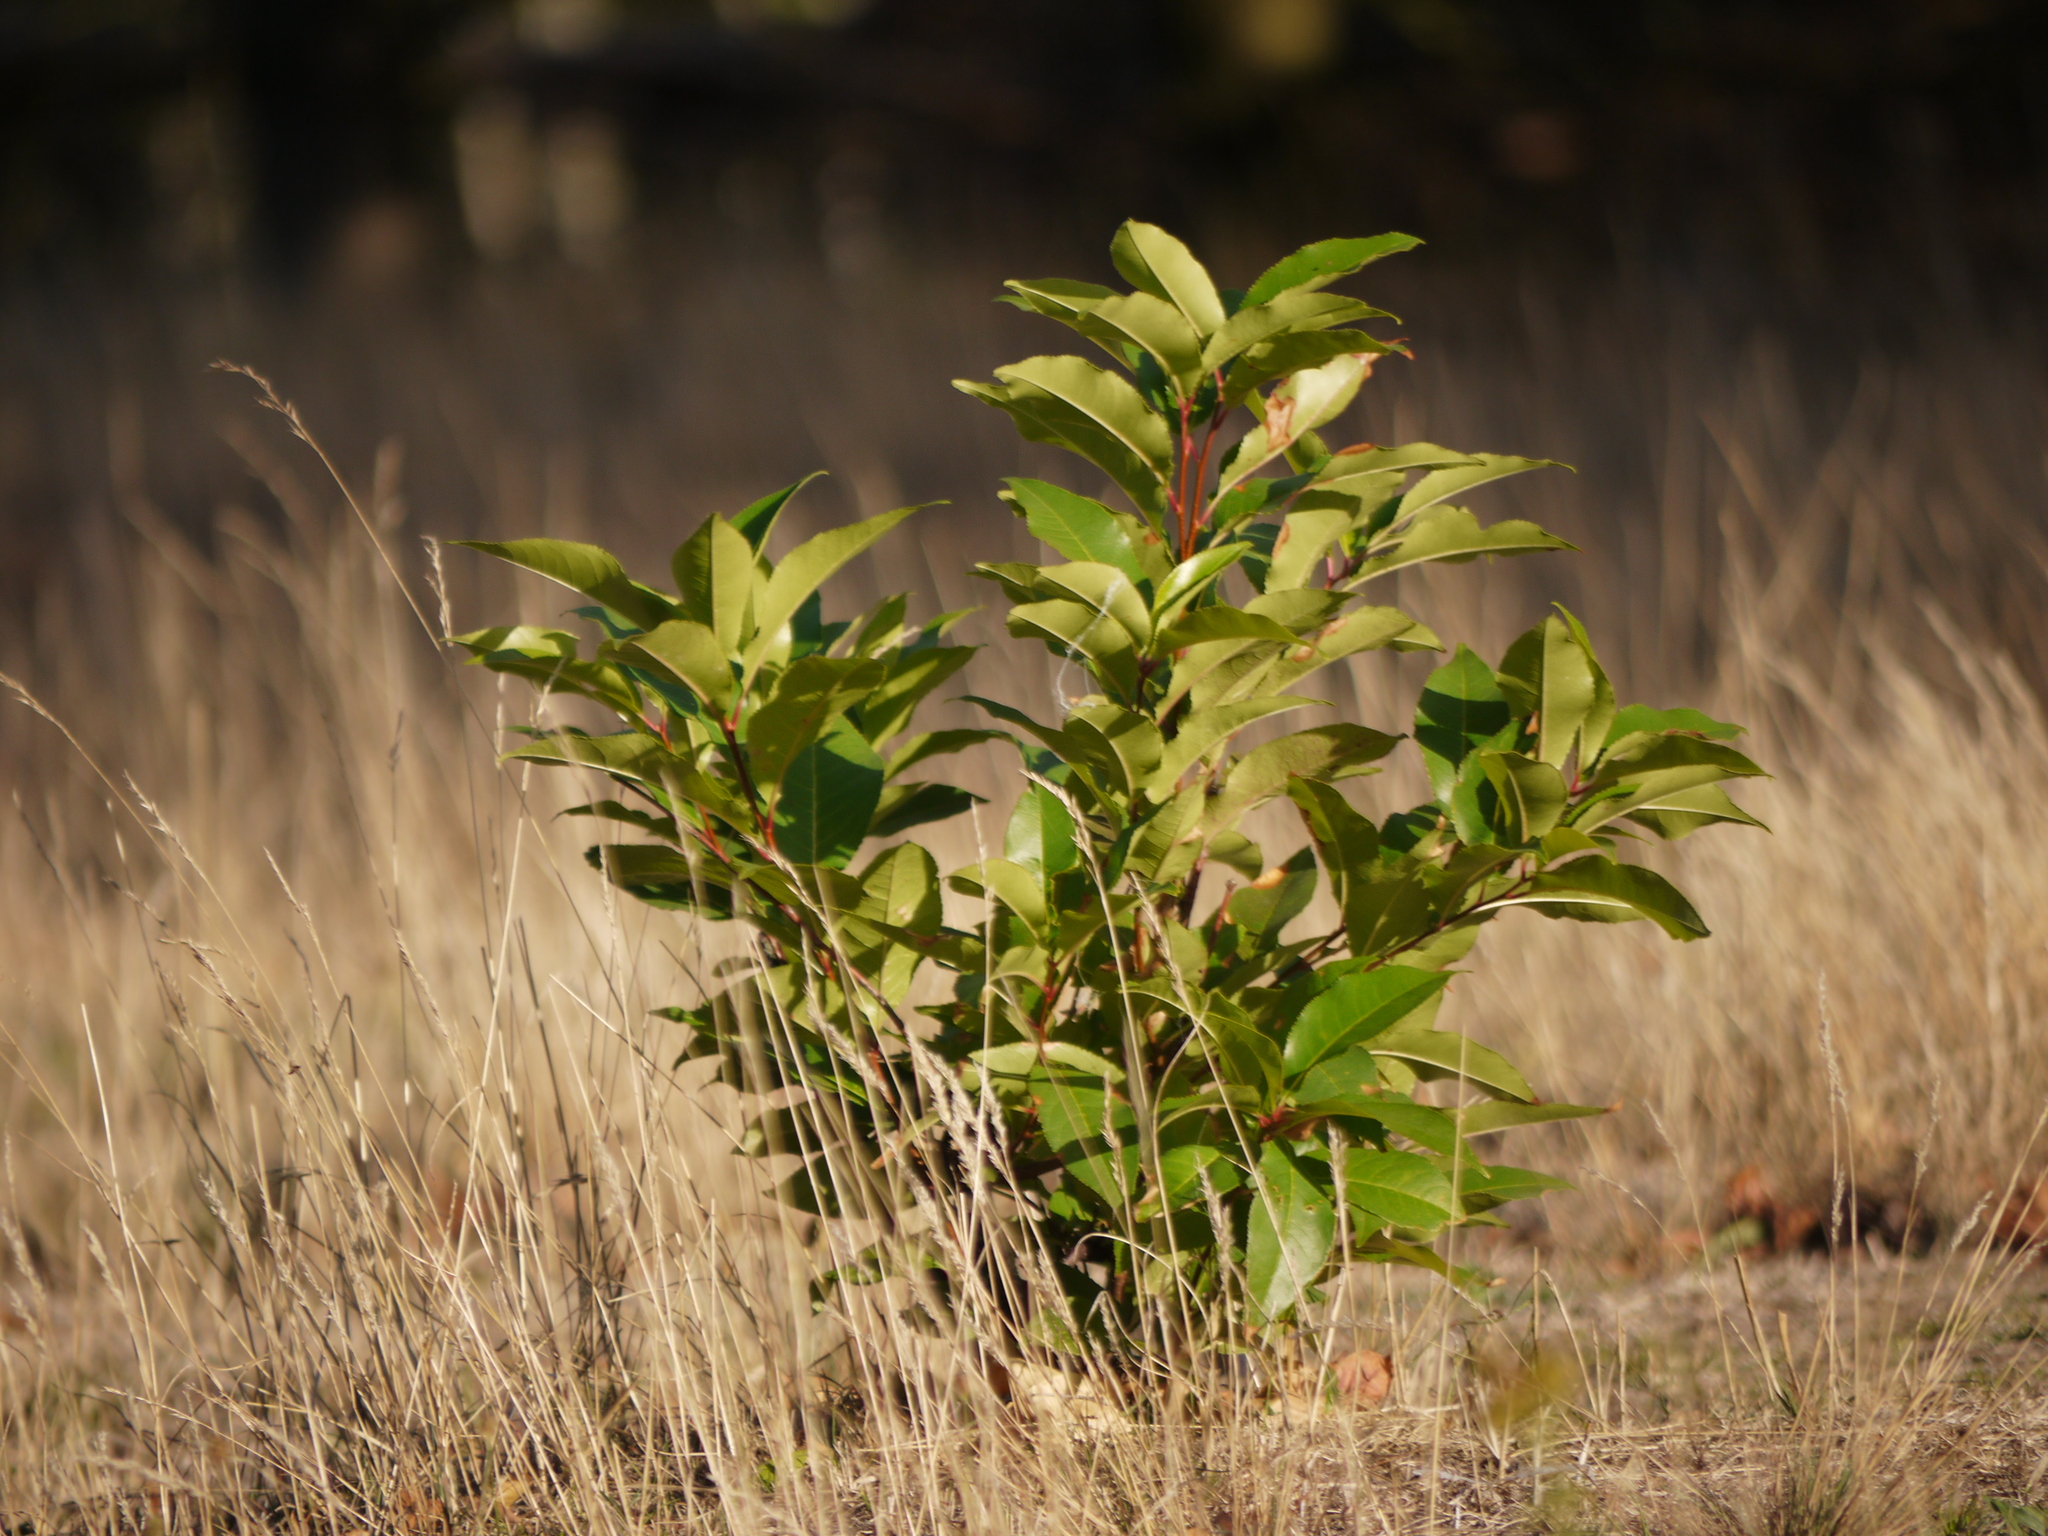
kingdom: Plantae
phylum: Tracheophyta
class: Magnoliopsida
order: Rosales
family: Rosaceae
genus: Prunus
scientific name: Prunus serotina
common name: Black cherry
